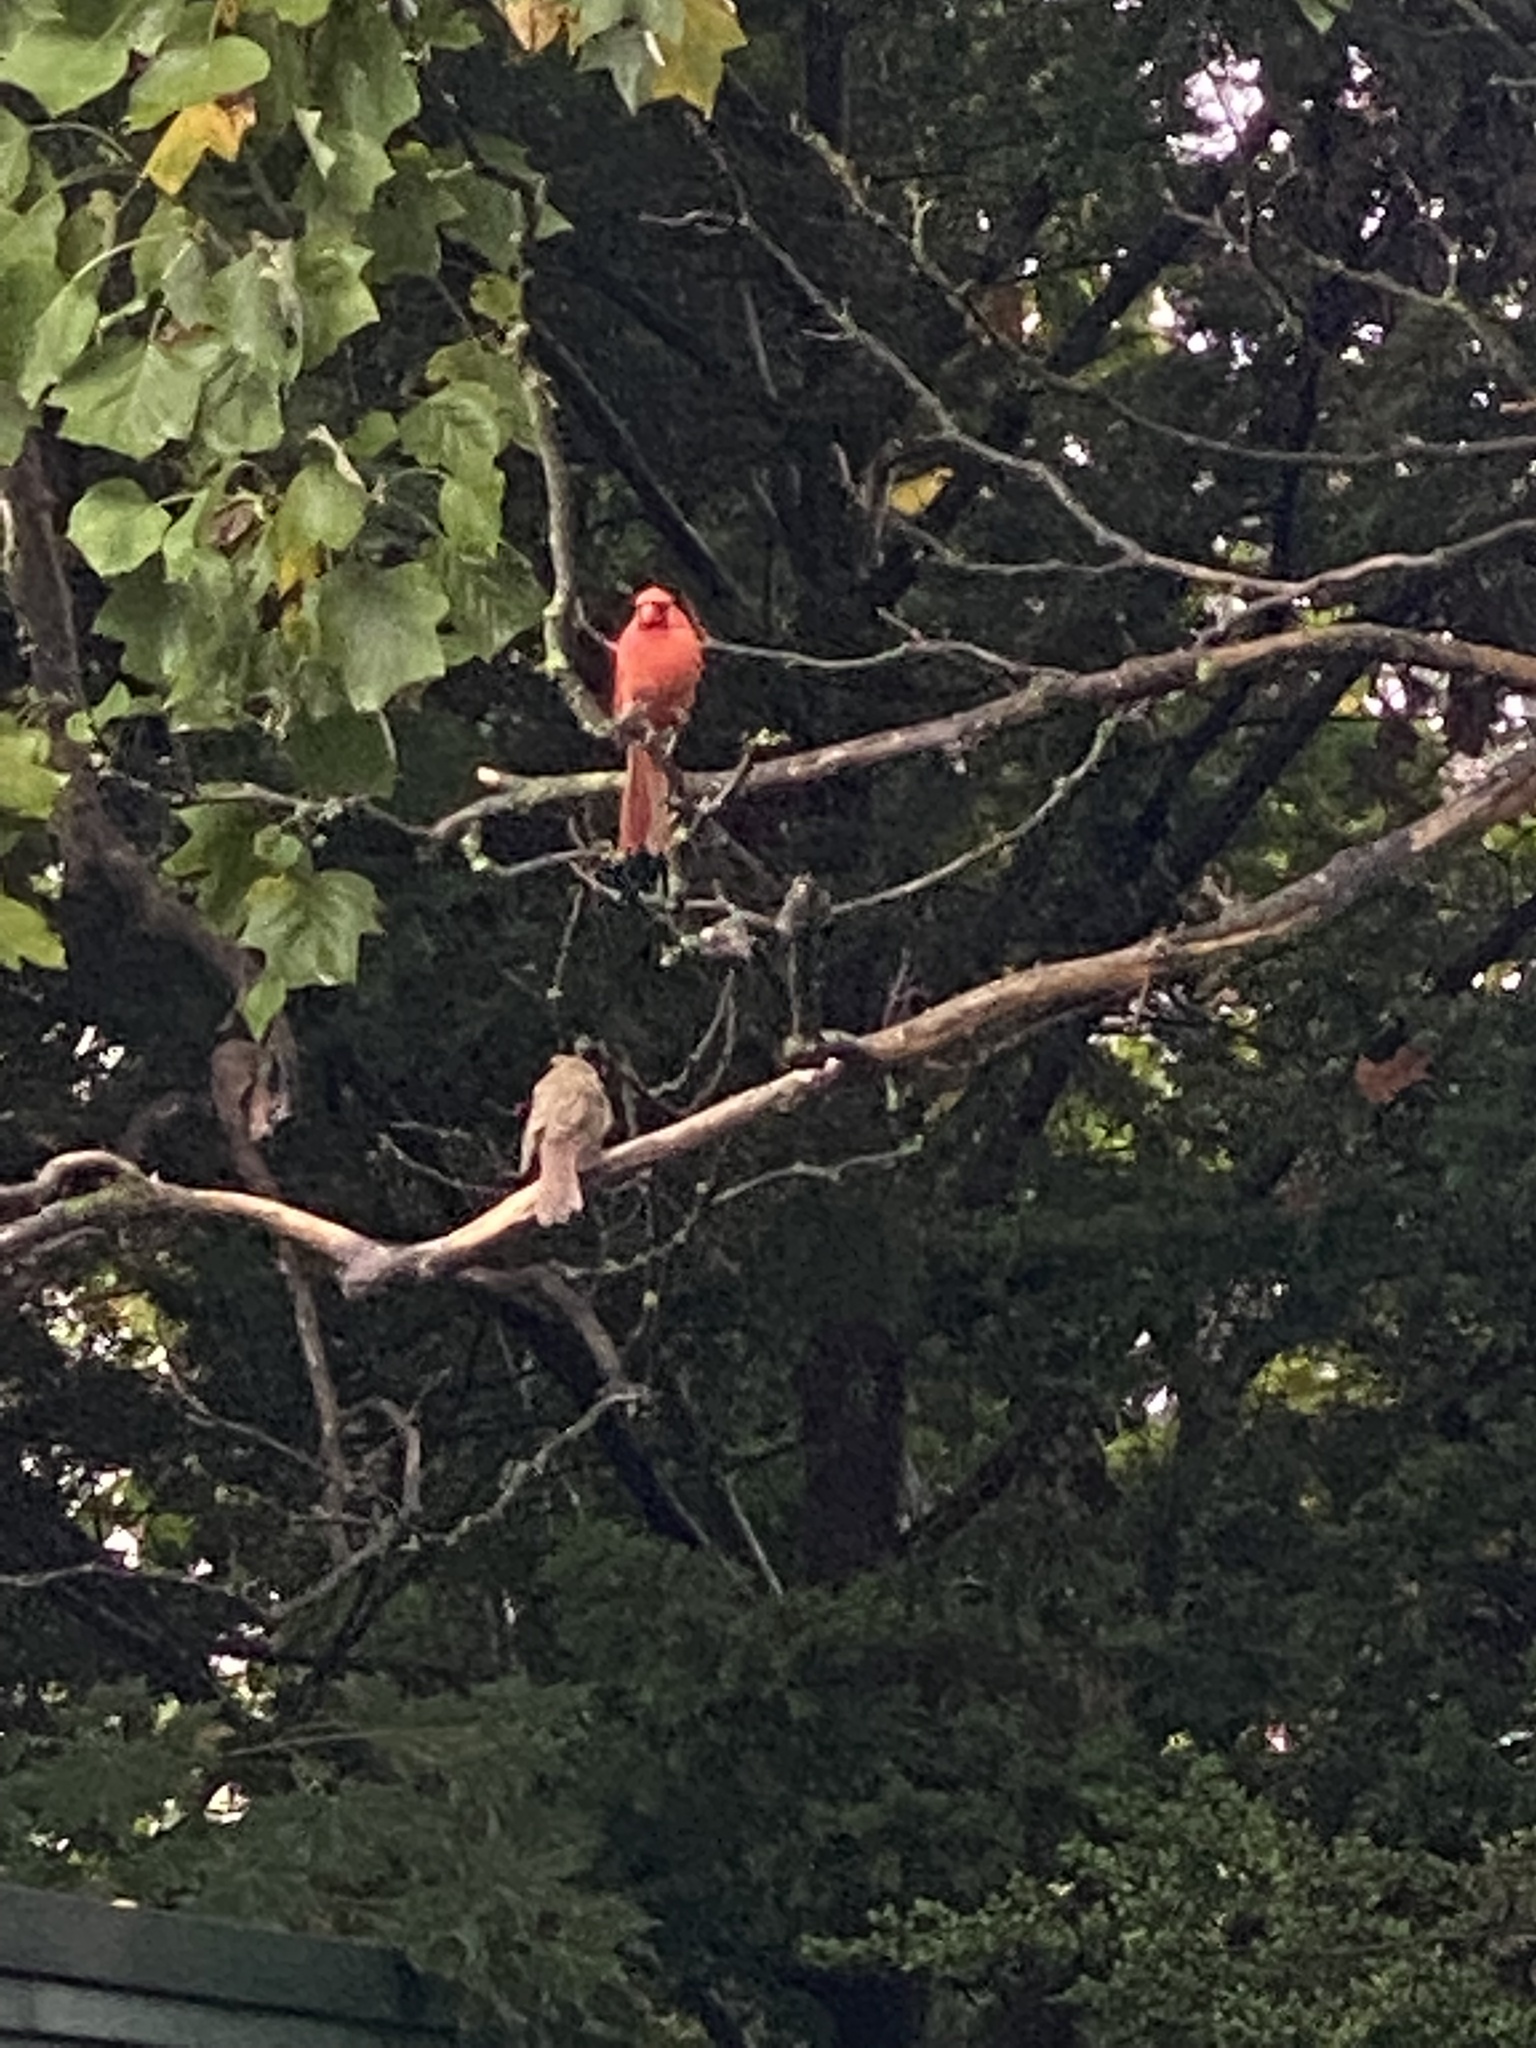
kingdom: Animalia
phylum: Chordata
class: Aves
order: Passeriformes
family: Cardinalidae
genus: Cardinalis
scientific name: Cardinalis cardinalis
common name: Northern cardinal
